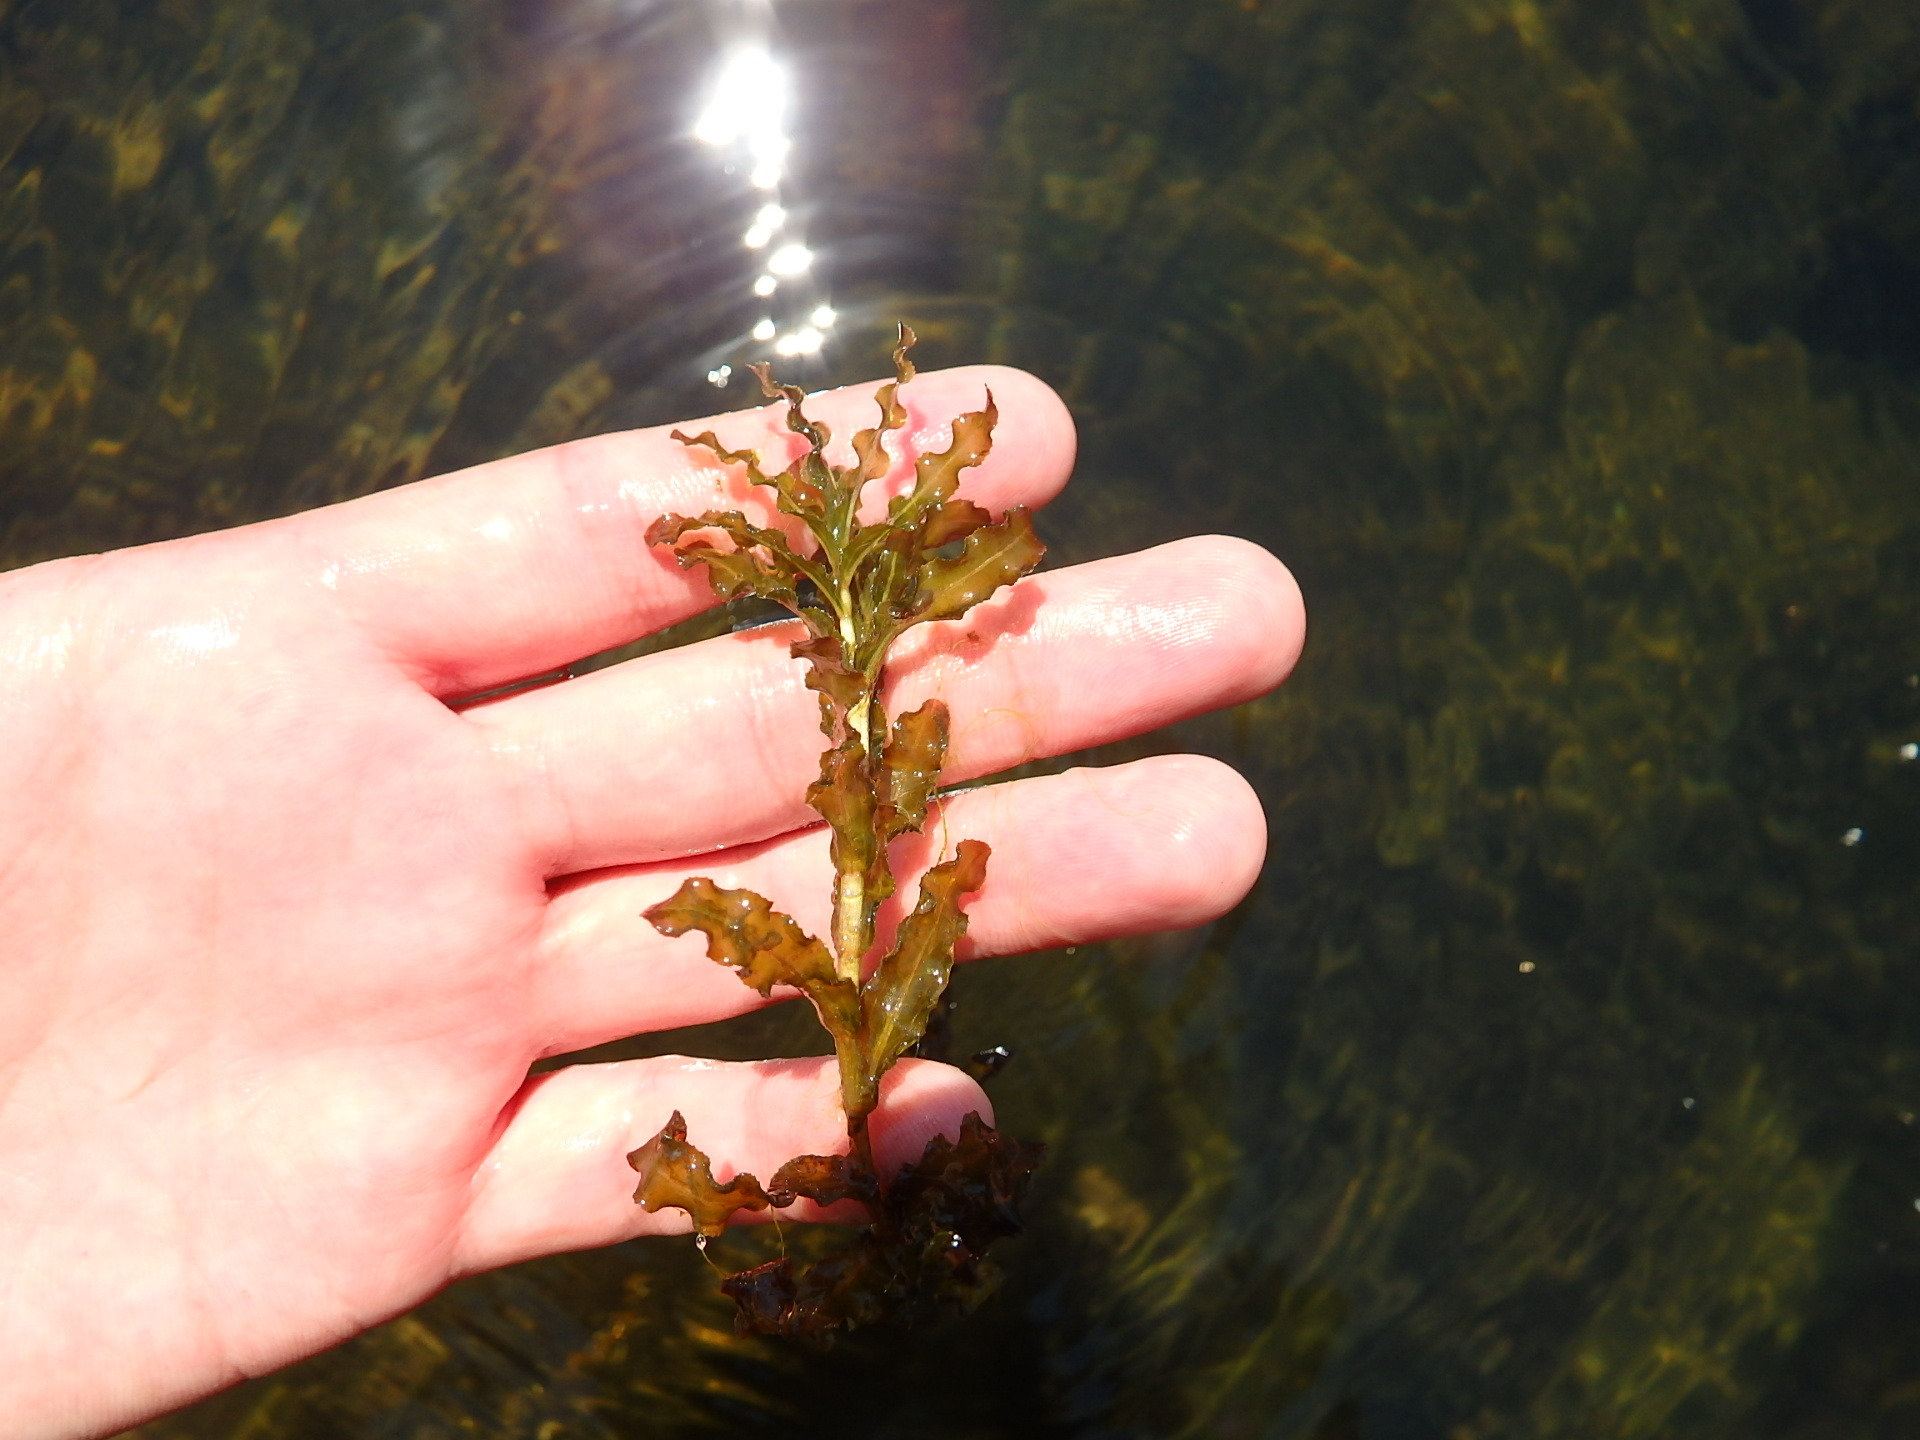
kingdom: Plantae
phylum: Tracheophyta
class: Liliopsida
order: Alismatales
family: Potamogetonaceae
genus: Potamogeton
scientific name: Potamogeton crispus
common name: Curled pondweed
